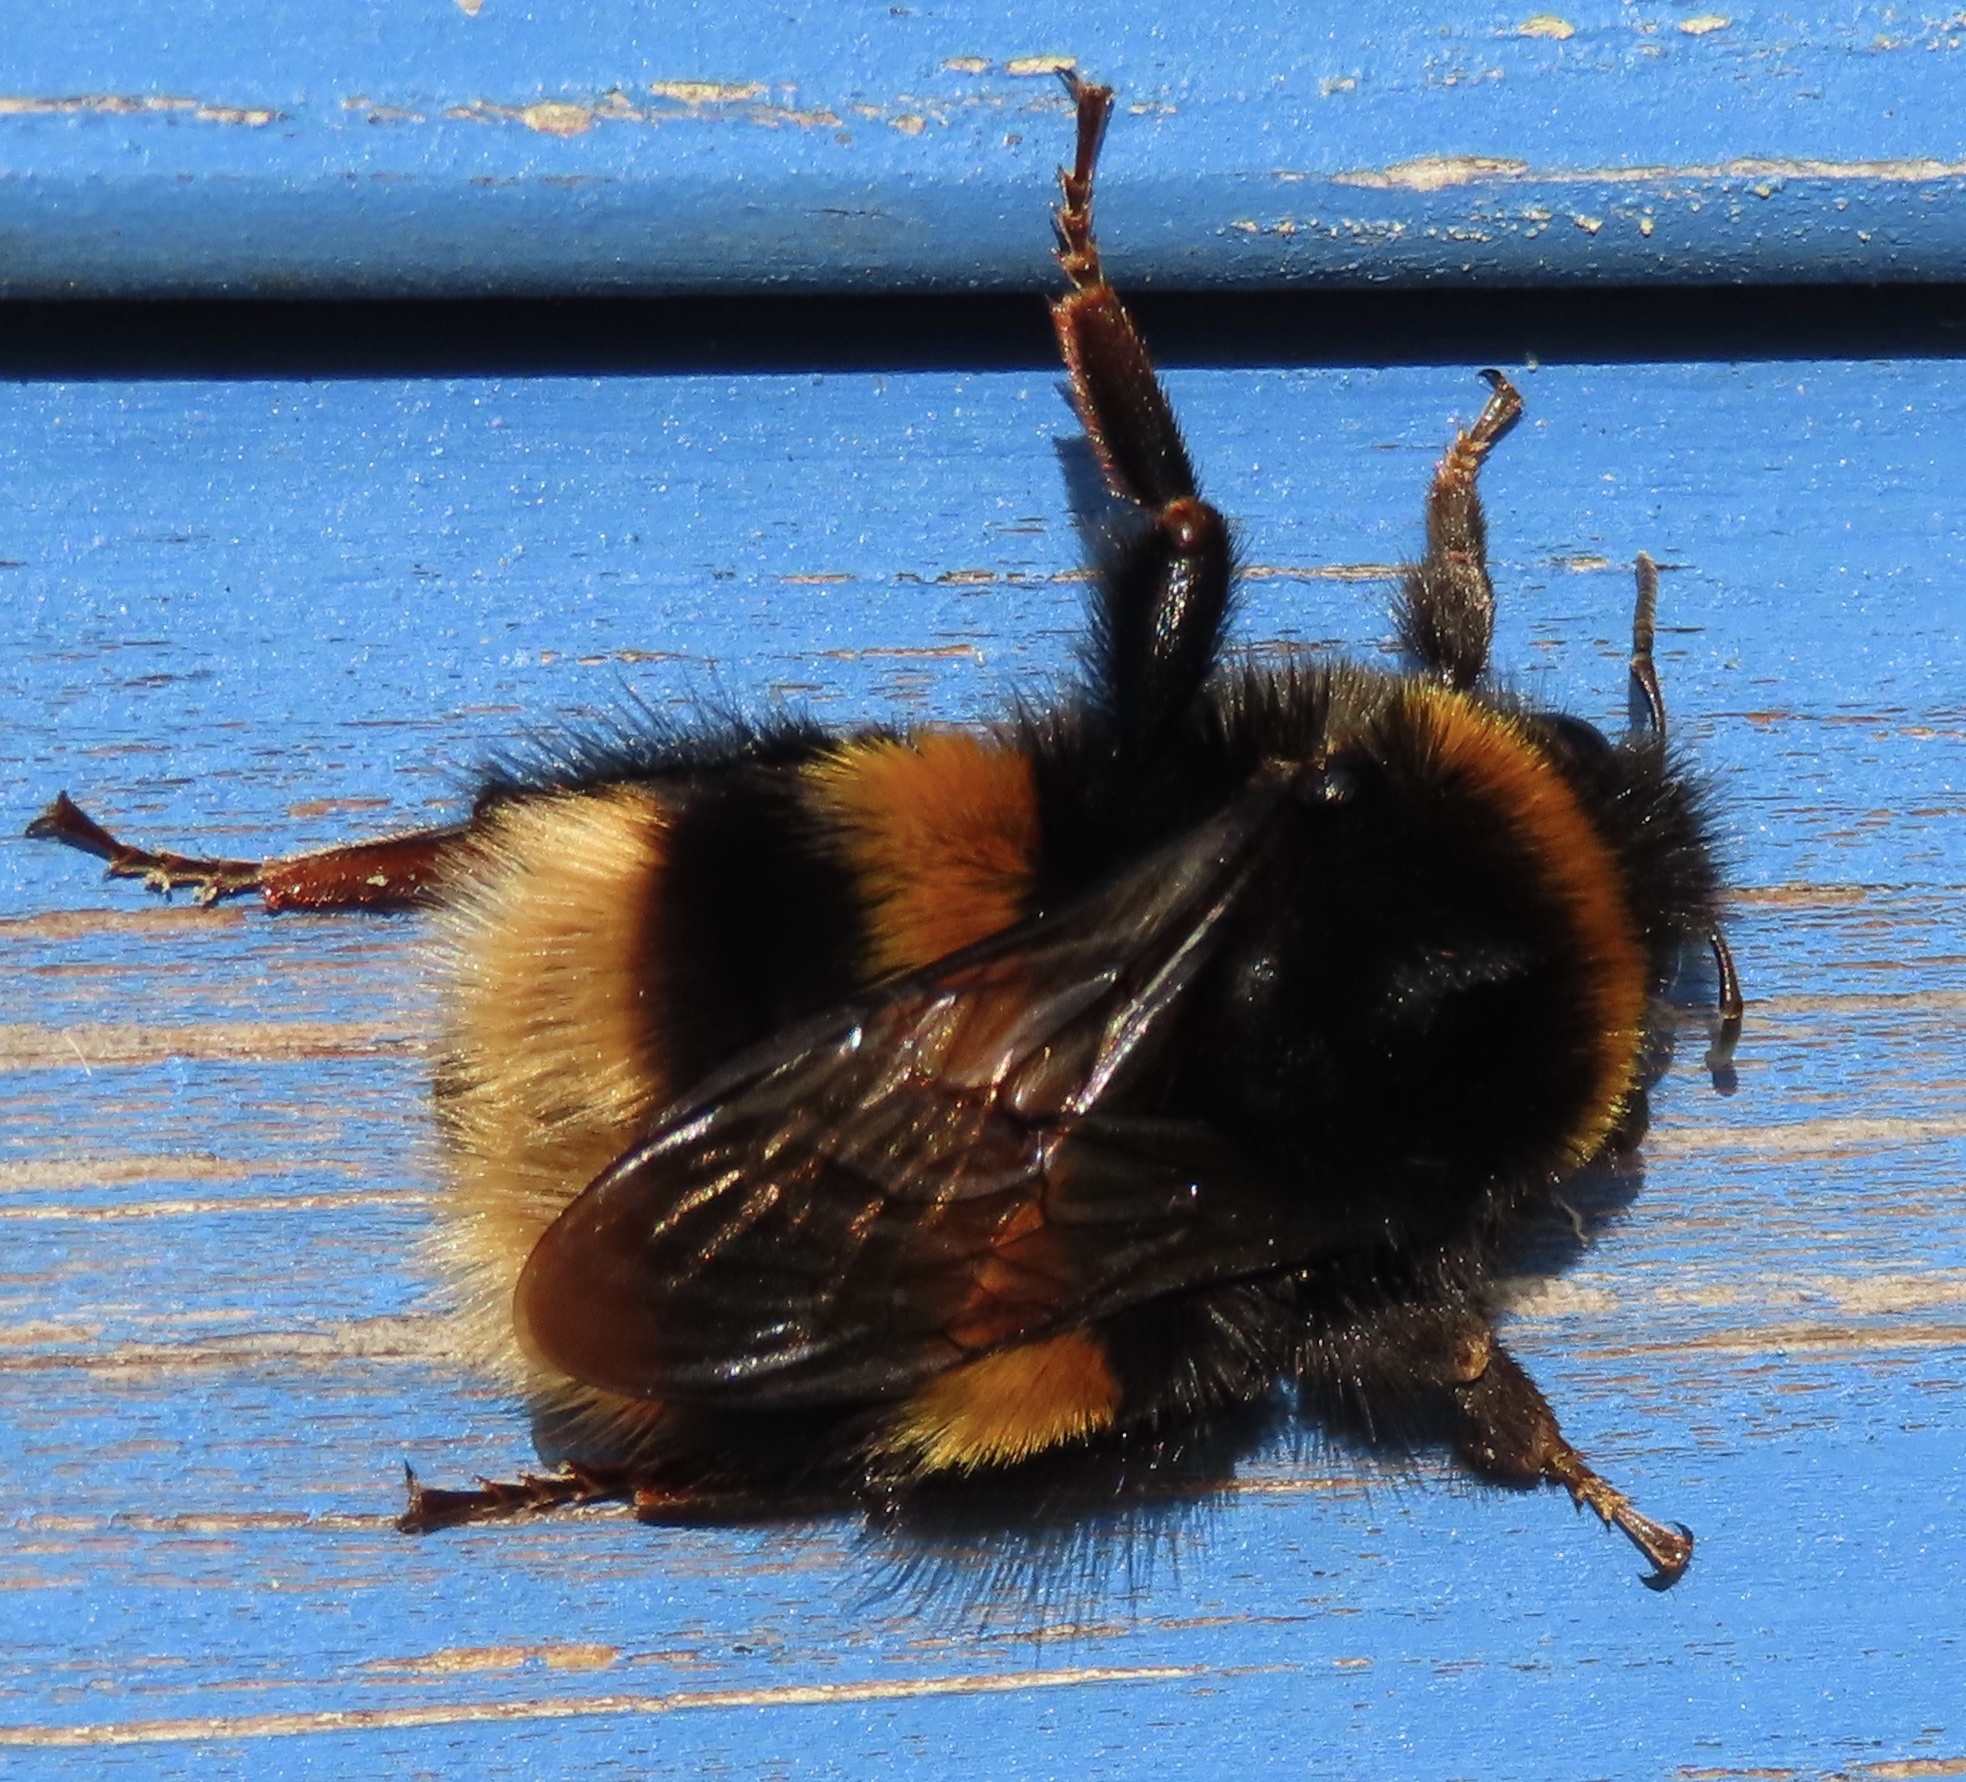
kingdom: Animalia
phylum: Arthropoda
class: Insecta
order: Hymenoptera
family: Apidae
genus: Bombus
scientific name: Bombus terrestris
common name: Buff-tailed bumblebee
